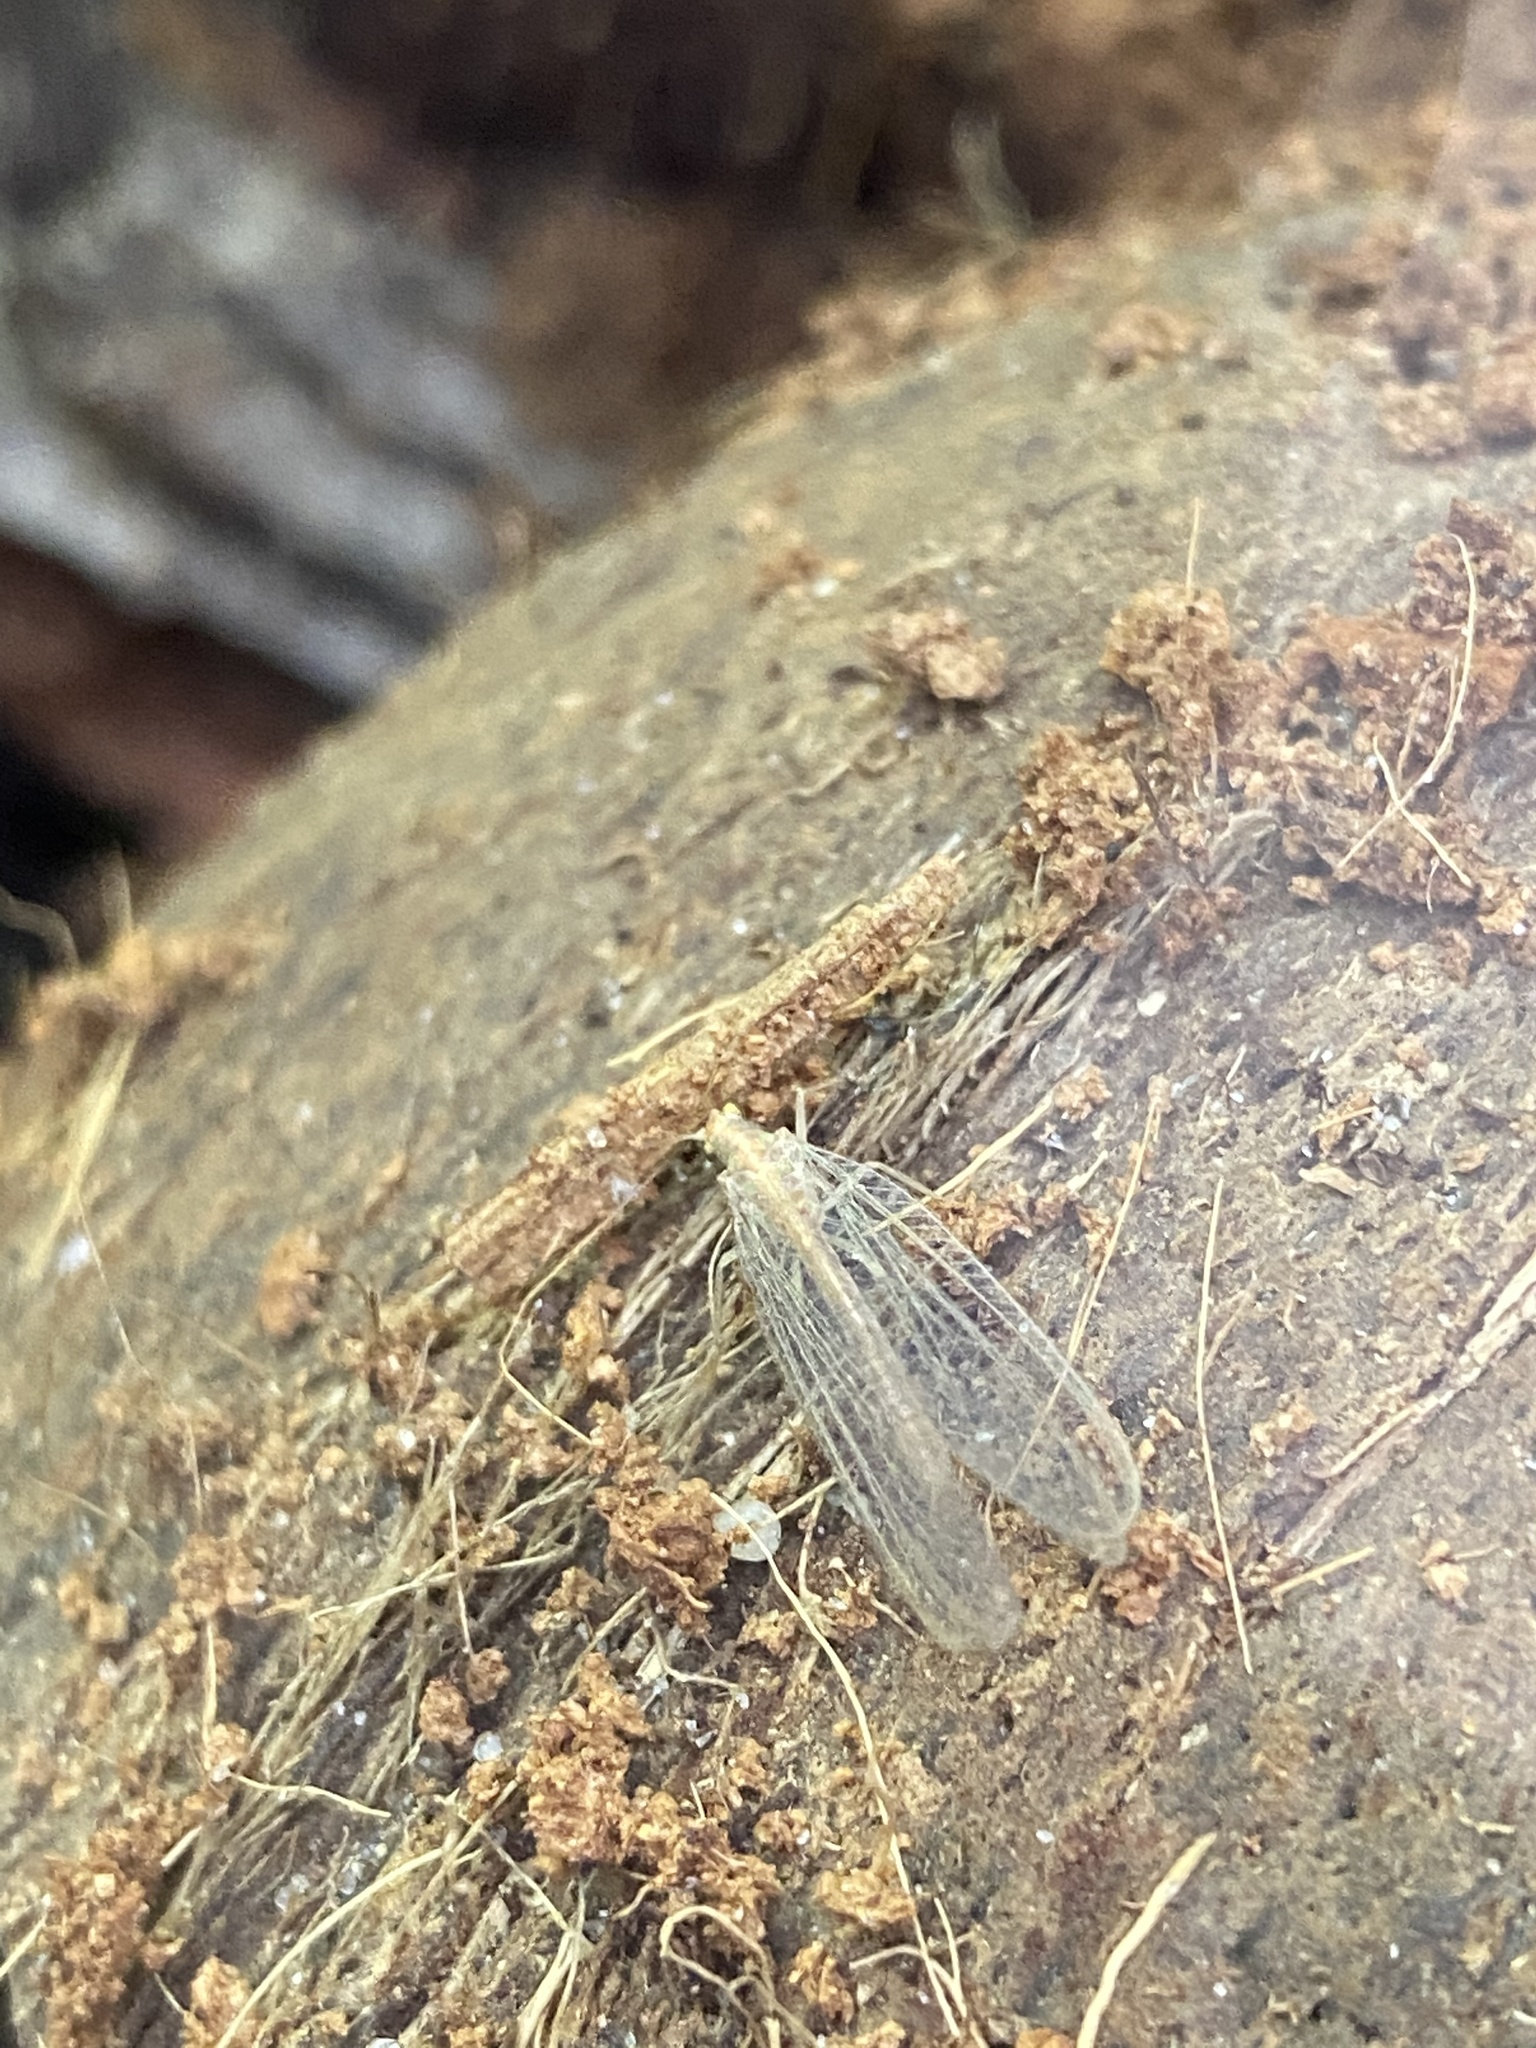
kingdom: Animalia
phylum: Arthropoda
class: Insecta
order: Neuroptera
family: Chrysopidae
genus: Chrysoperla
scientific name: Chrysoperla
